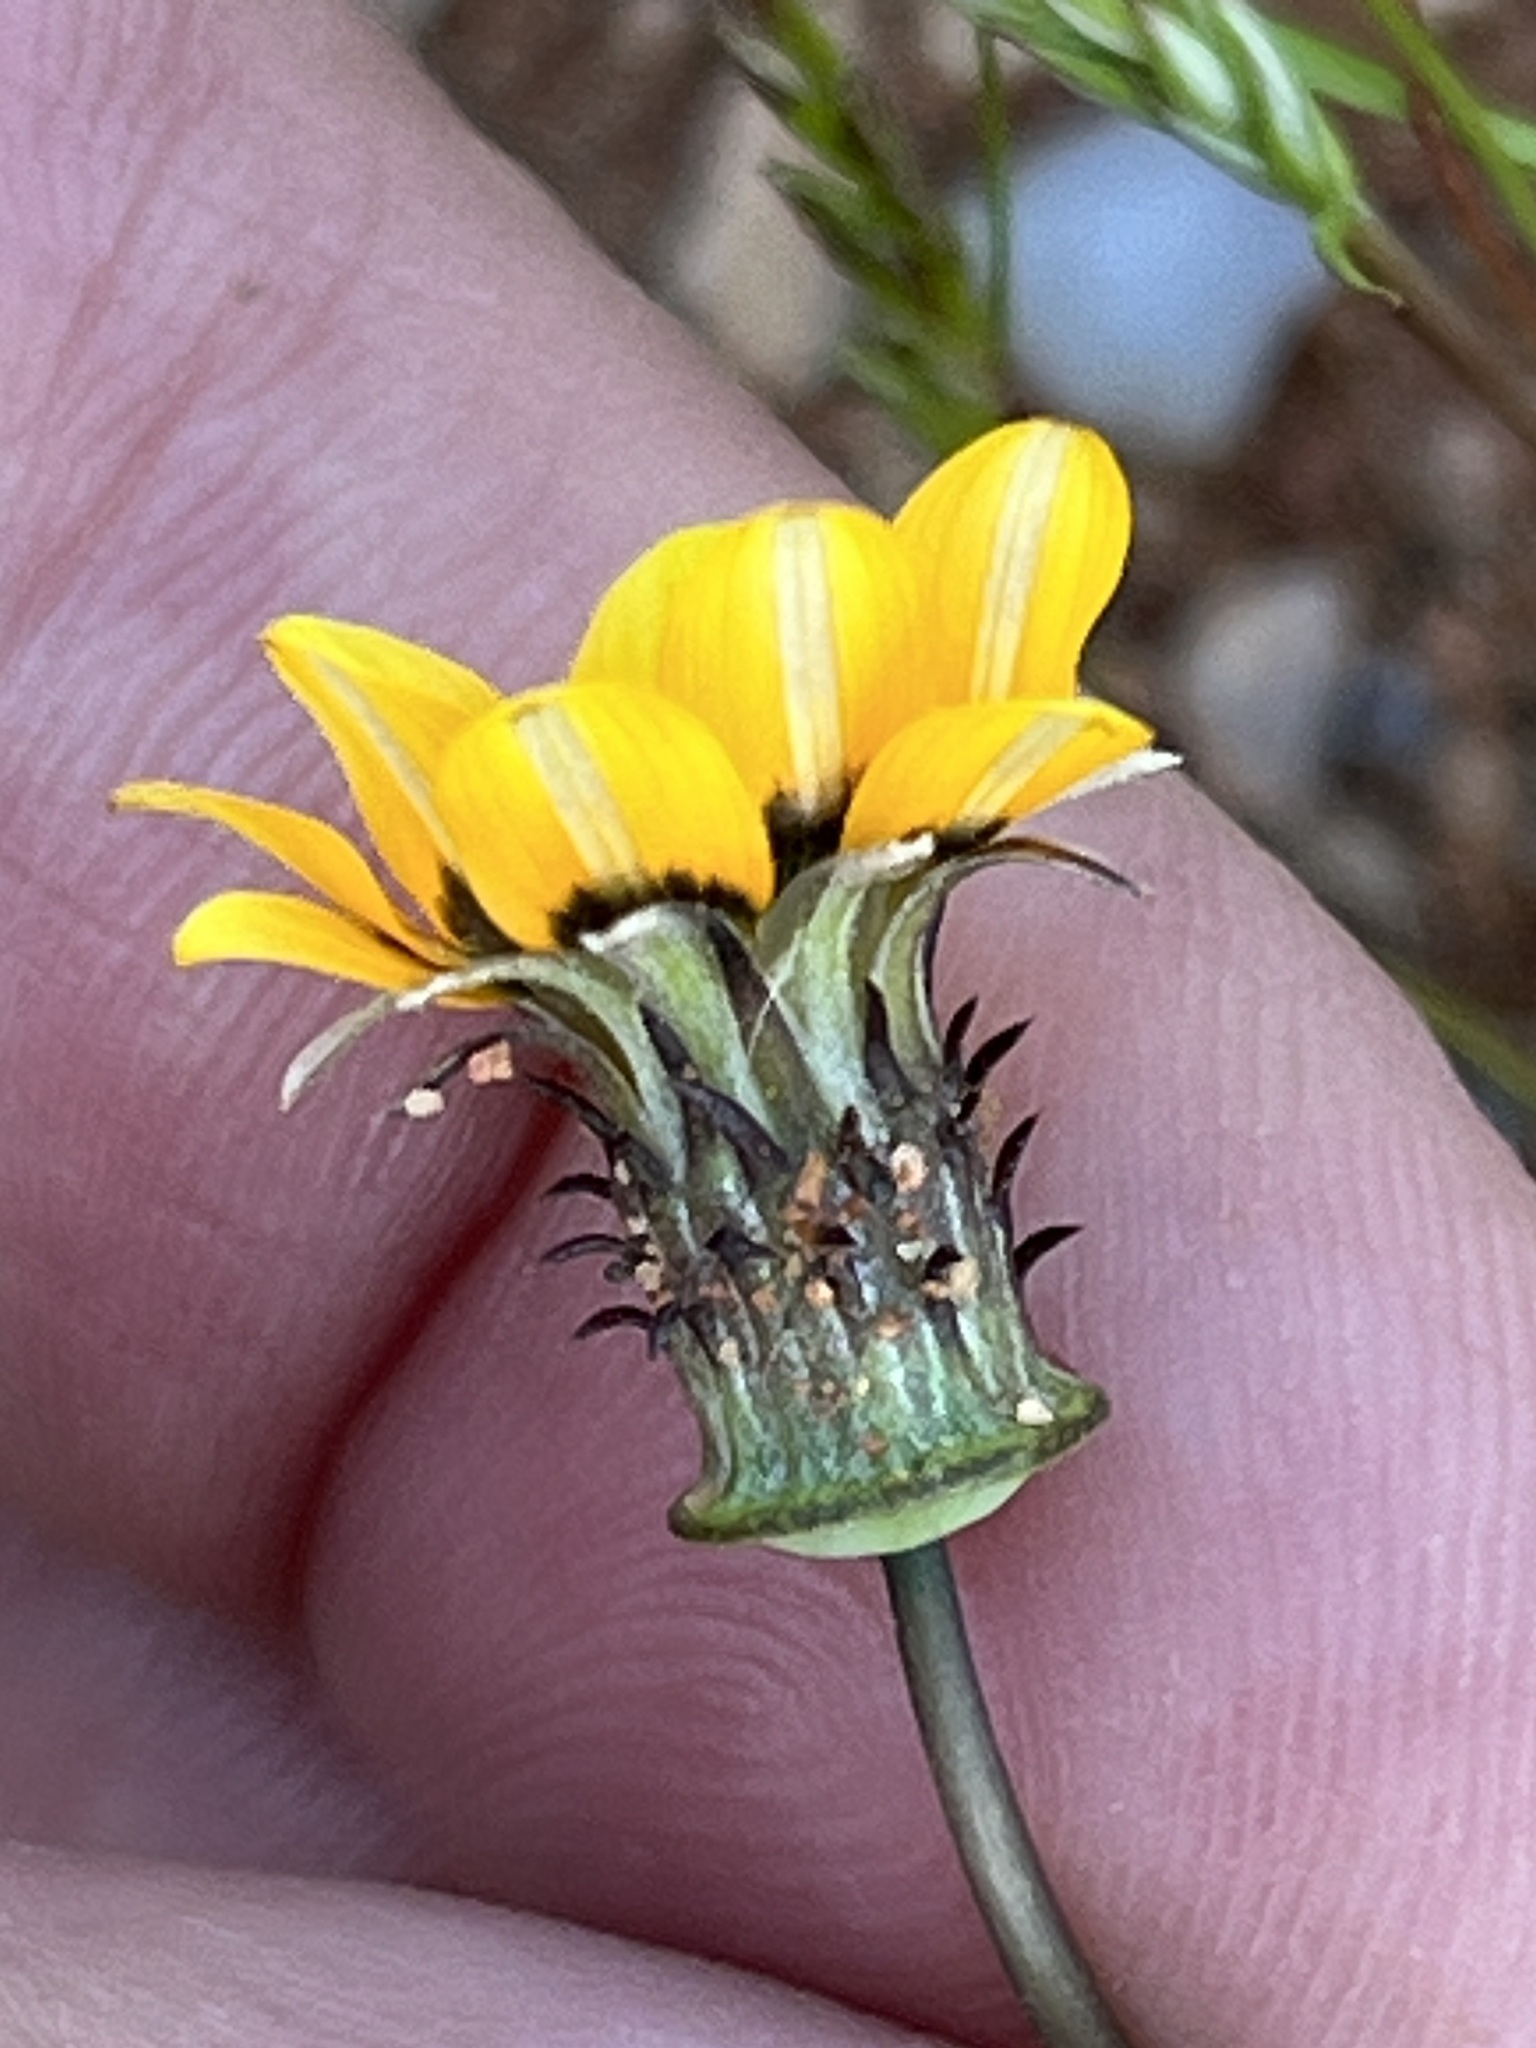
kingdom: Plantae
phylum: Tracheophyta
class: Magnoliopsida
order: Asterales
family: Asteraceae
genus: Gazania
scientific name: Gazania tenuifolia
